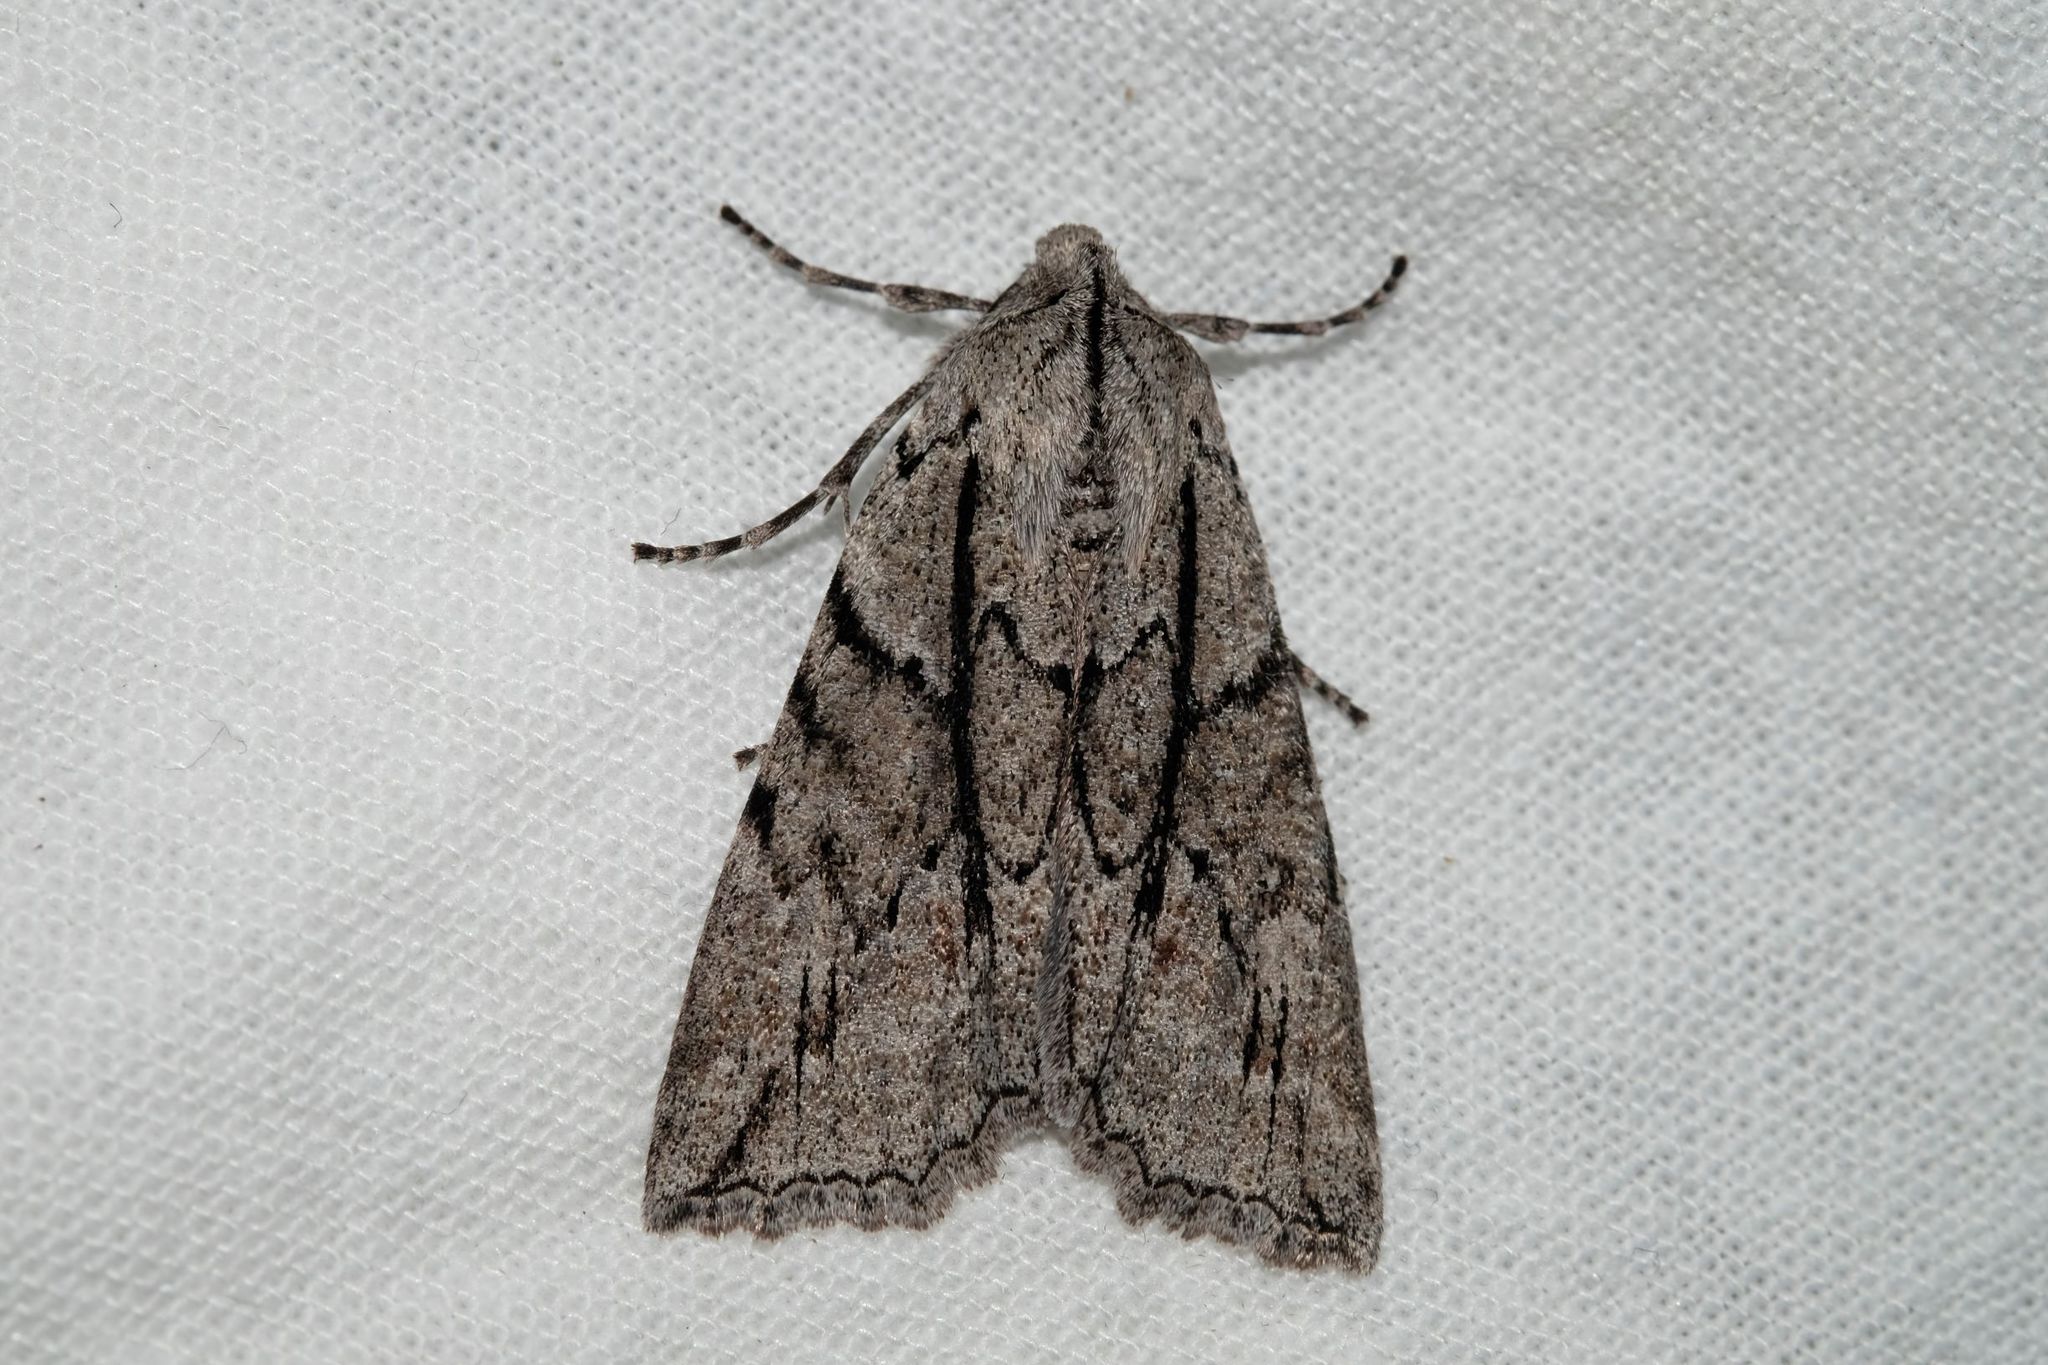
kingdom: Animalia
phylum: Arthropoda
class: Insecta
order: Lepidoptera
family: Geometridae
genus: Nisista
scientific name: Nisista galearia
